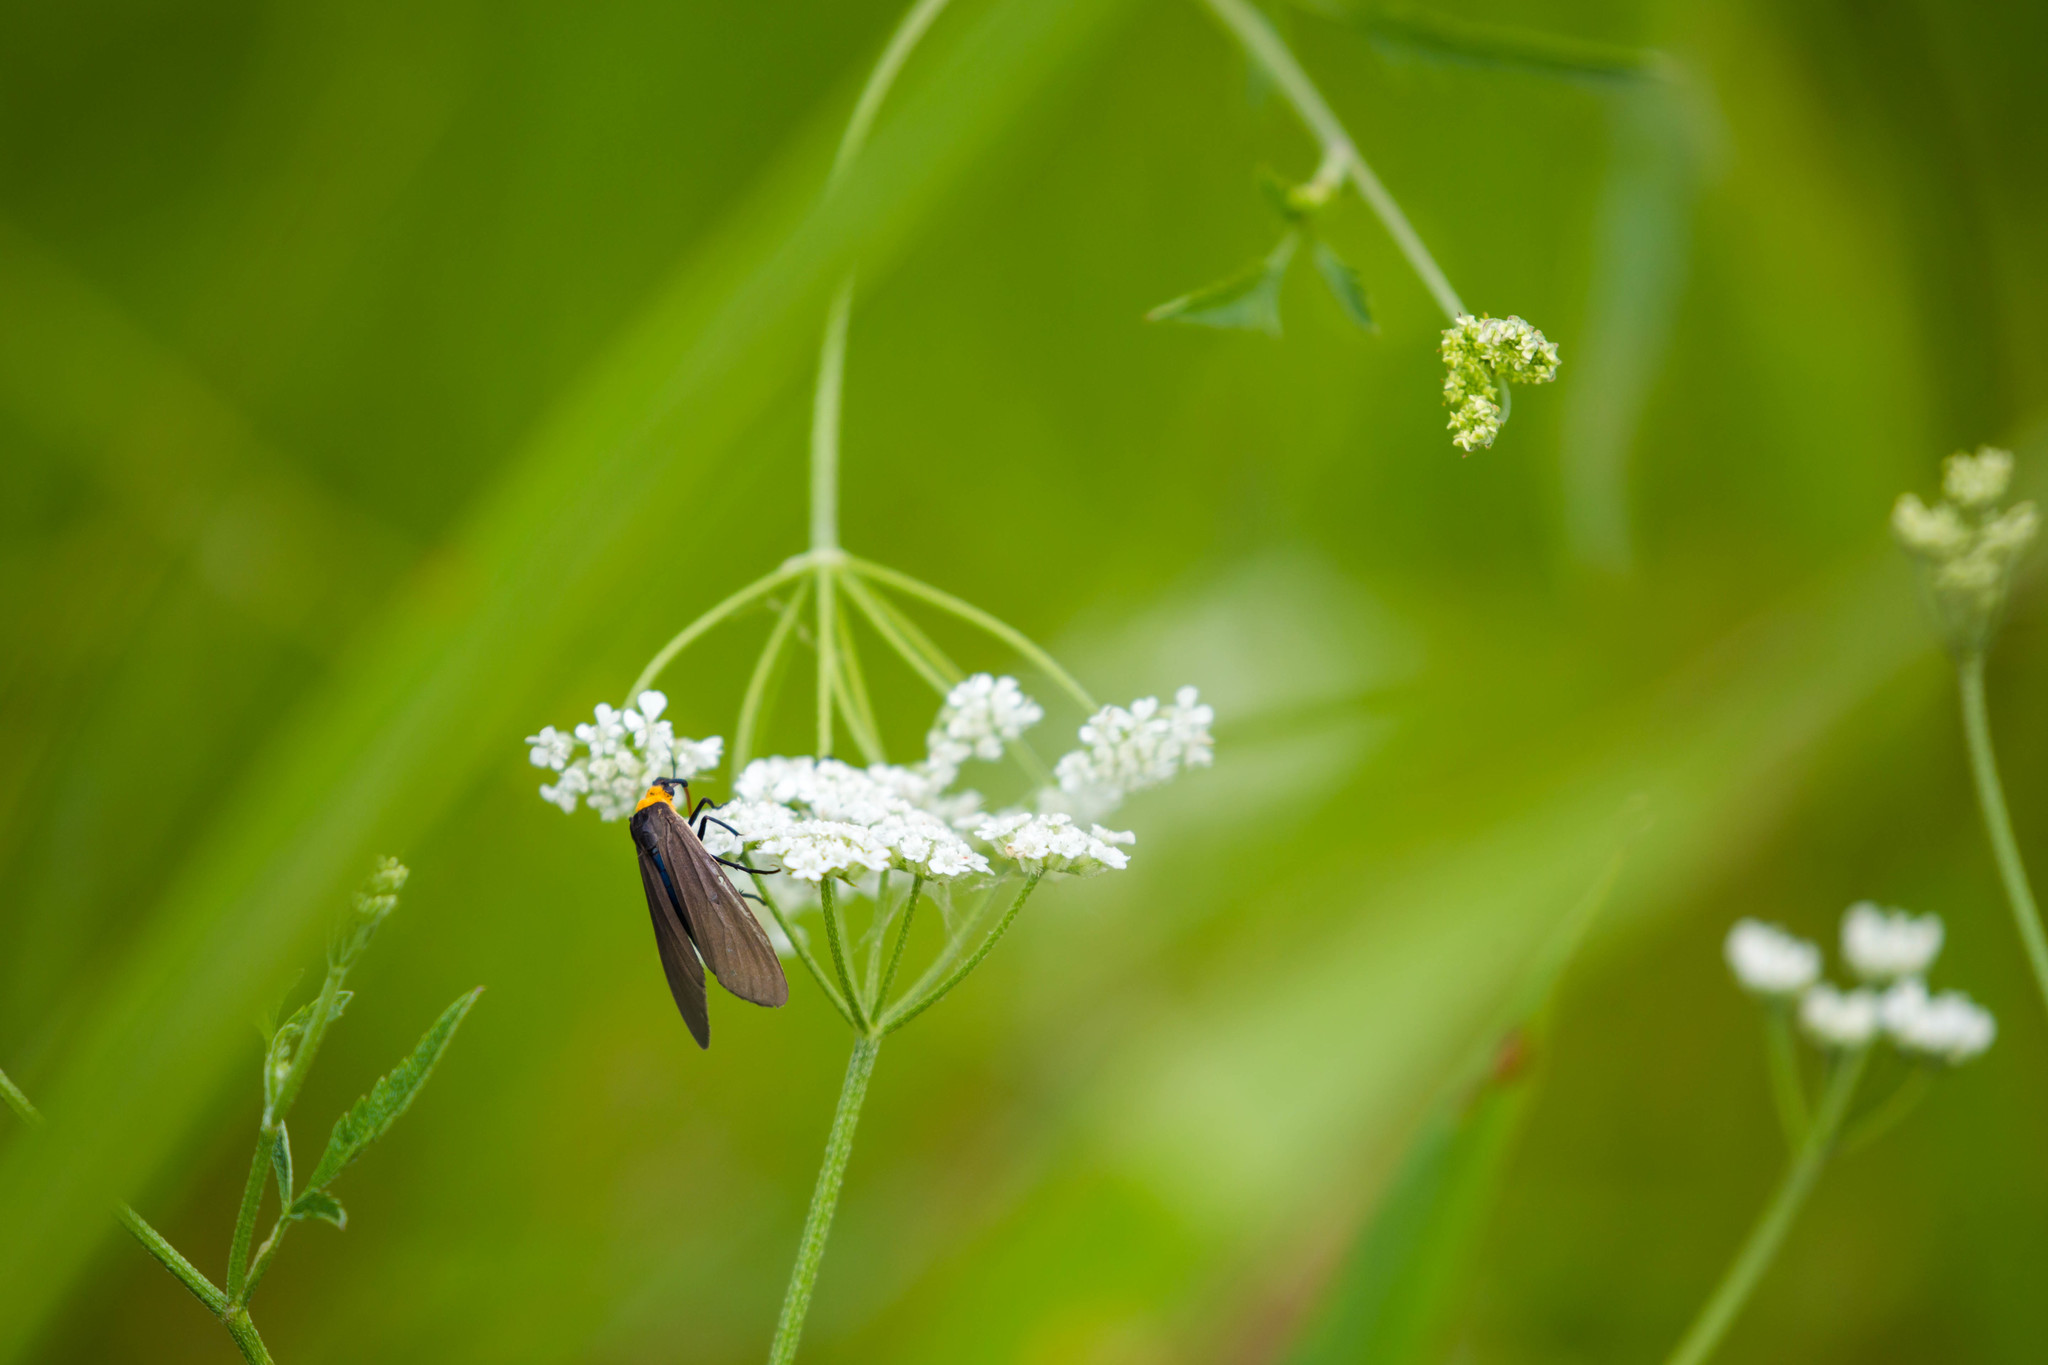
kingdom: Animalia
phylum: Arthropoda
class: Insecta
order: Lepidoptera
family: Erebidae
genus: Cisseps
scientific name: Cisseps fulvicollis
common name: Yellow-collared scape moth
